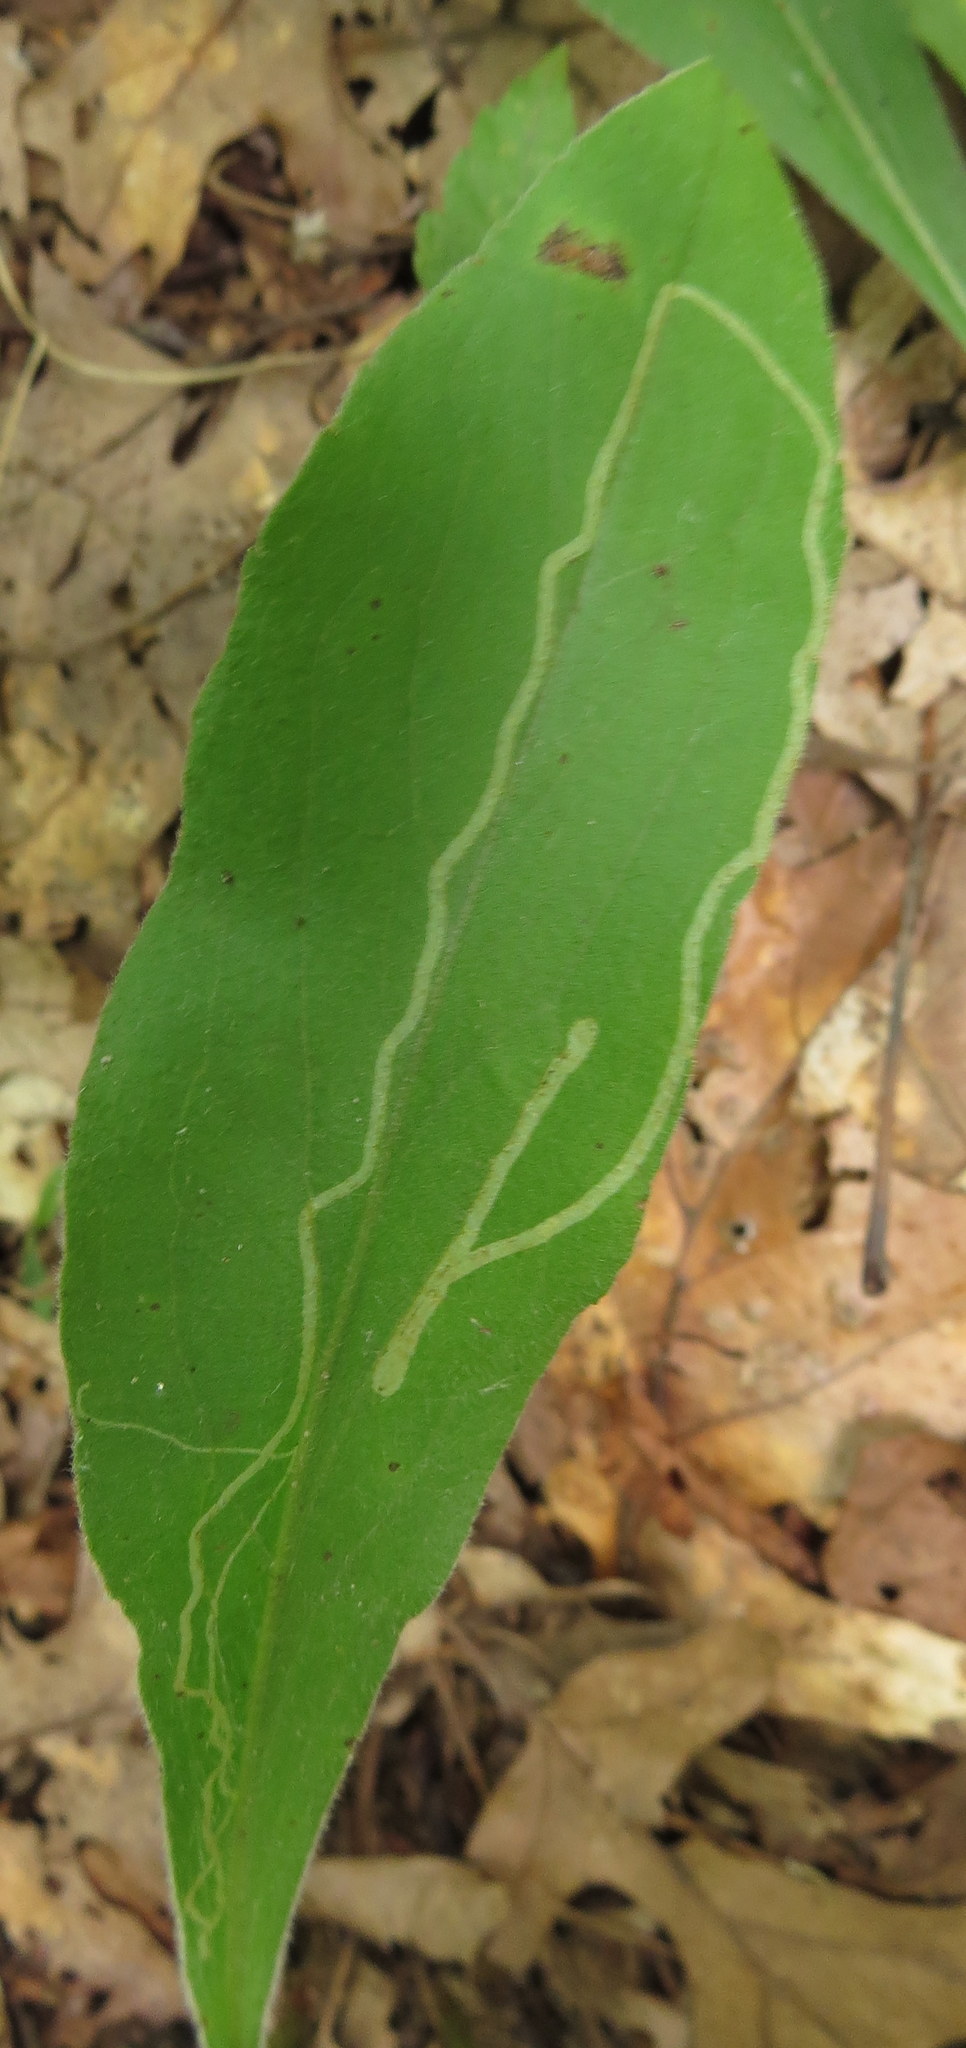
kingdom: Animalia
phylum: Arthropoda
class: Insecta
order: Diptera
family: Agromyzidae
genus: Ophiomyia
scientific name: Ophiomyia maura
